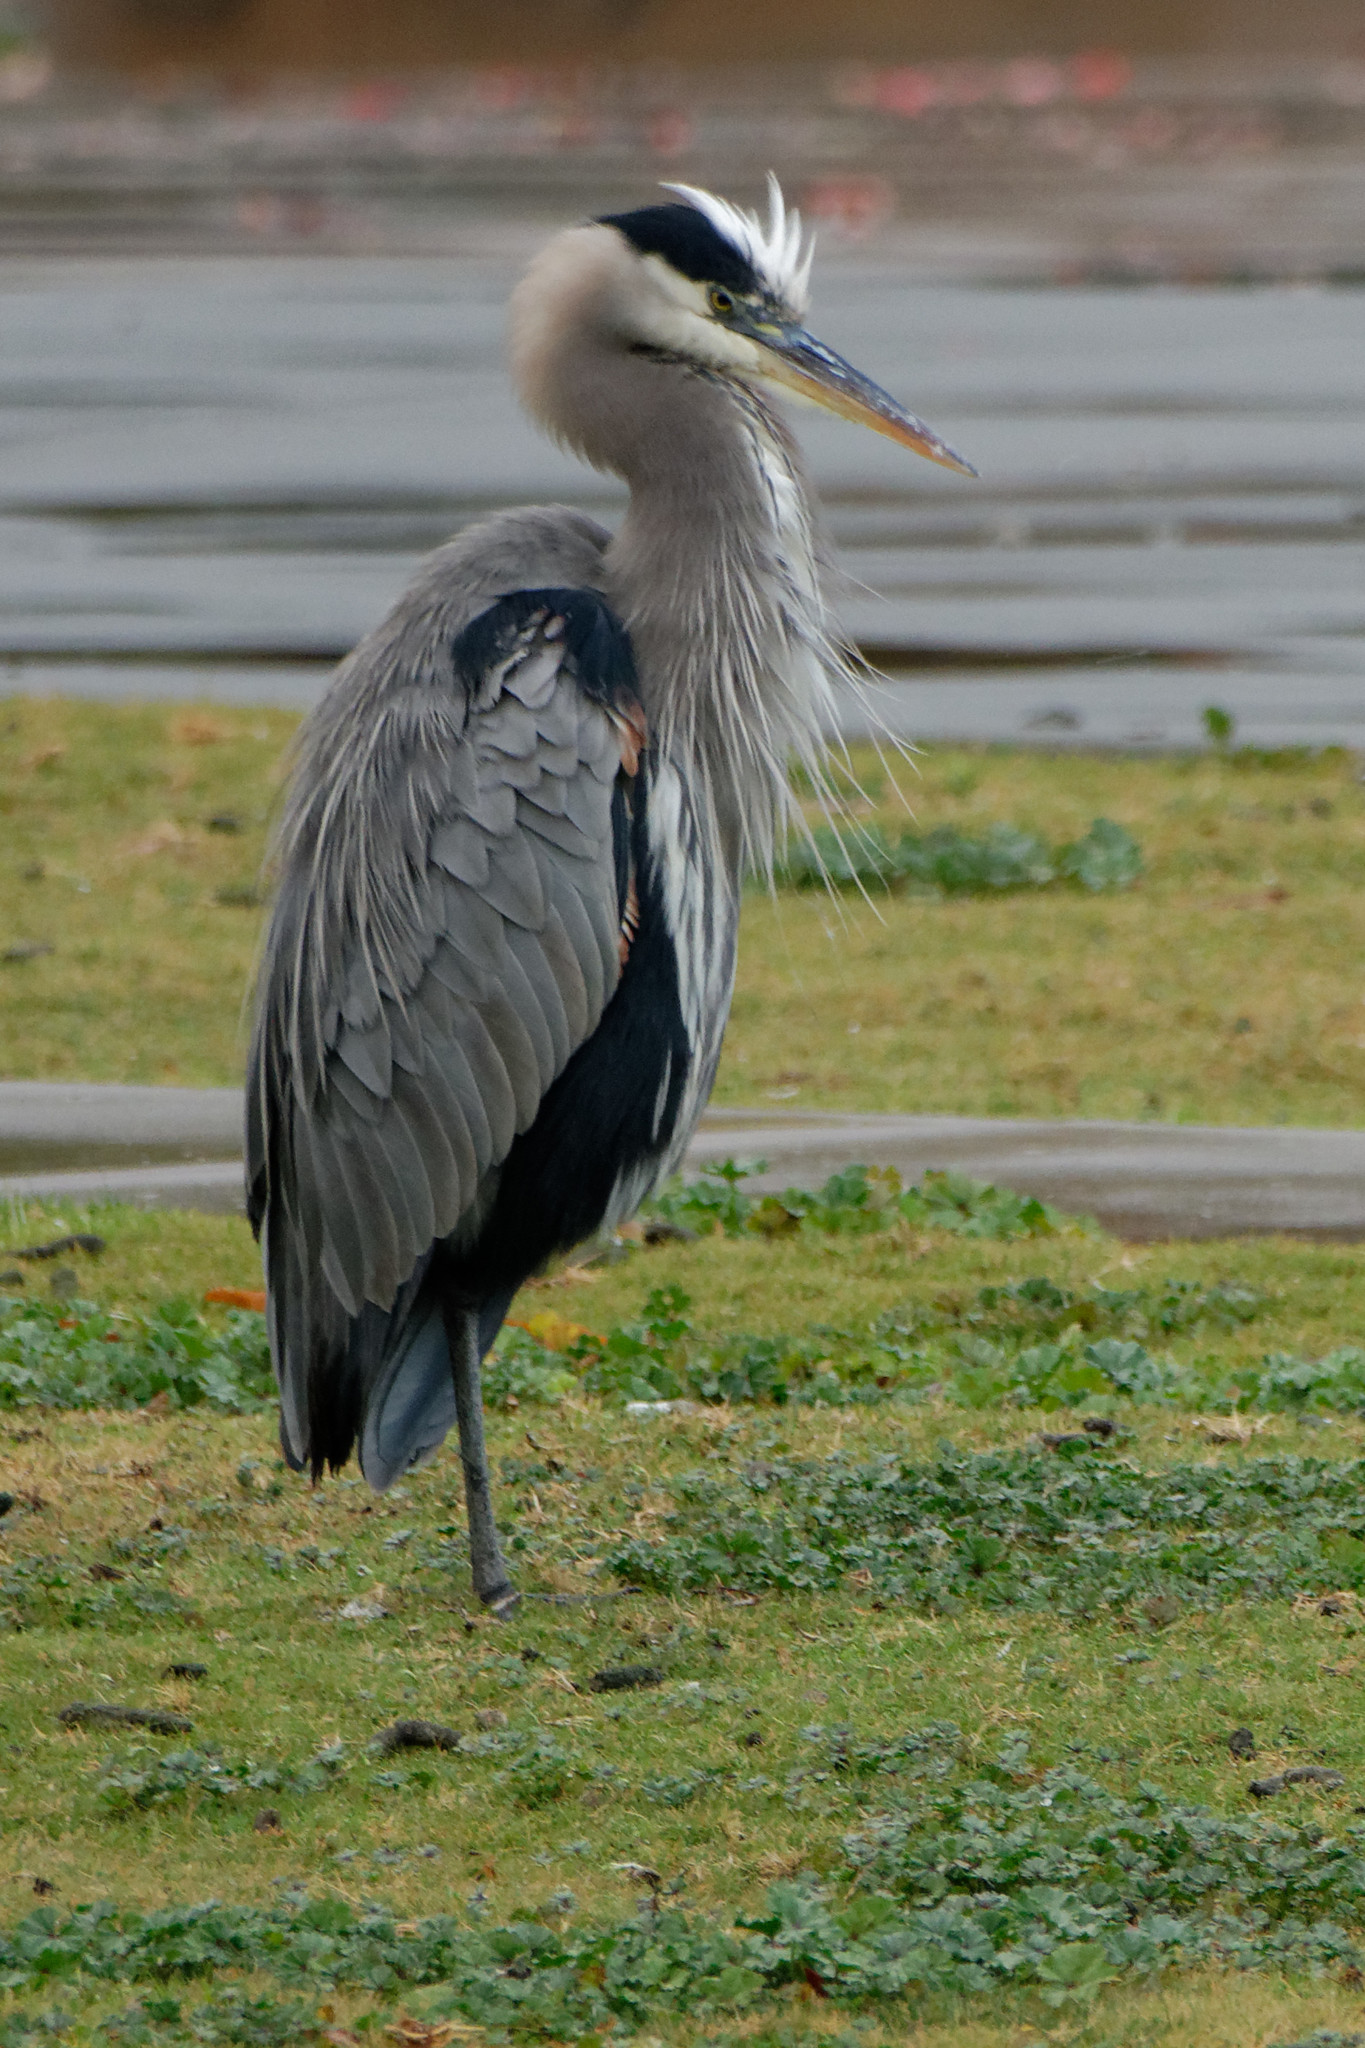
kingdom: Animalia
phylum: Chordata
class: Aves
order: Pelecaniformes
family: Ardeidae
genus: Ardea
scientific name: Ardea herodias
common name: Great blue heron
